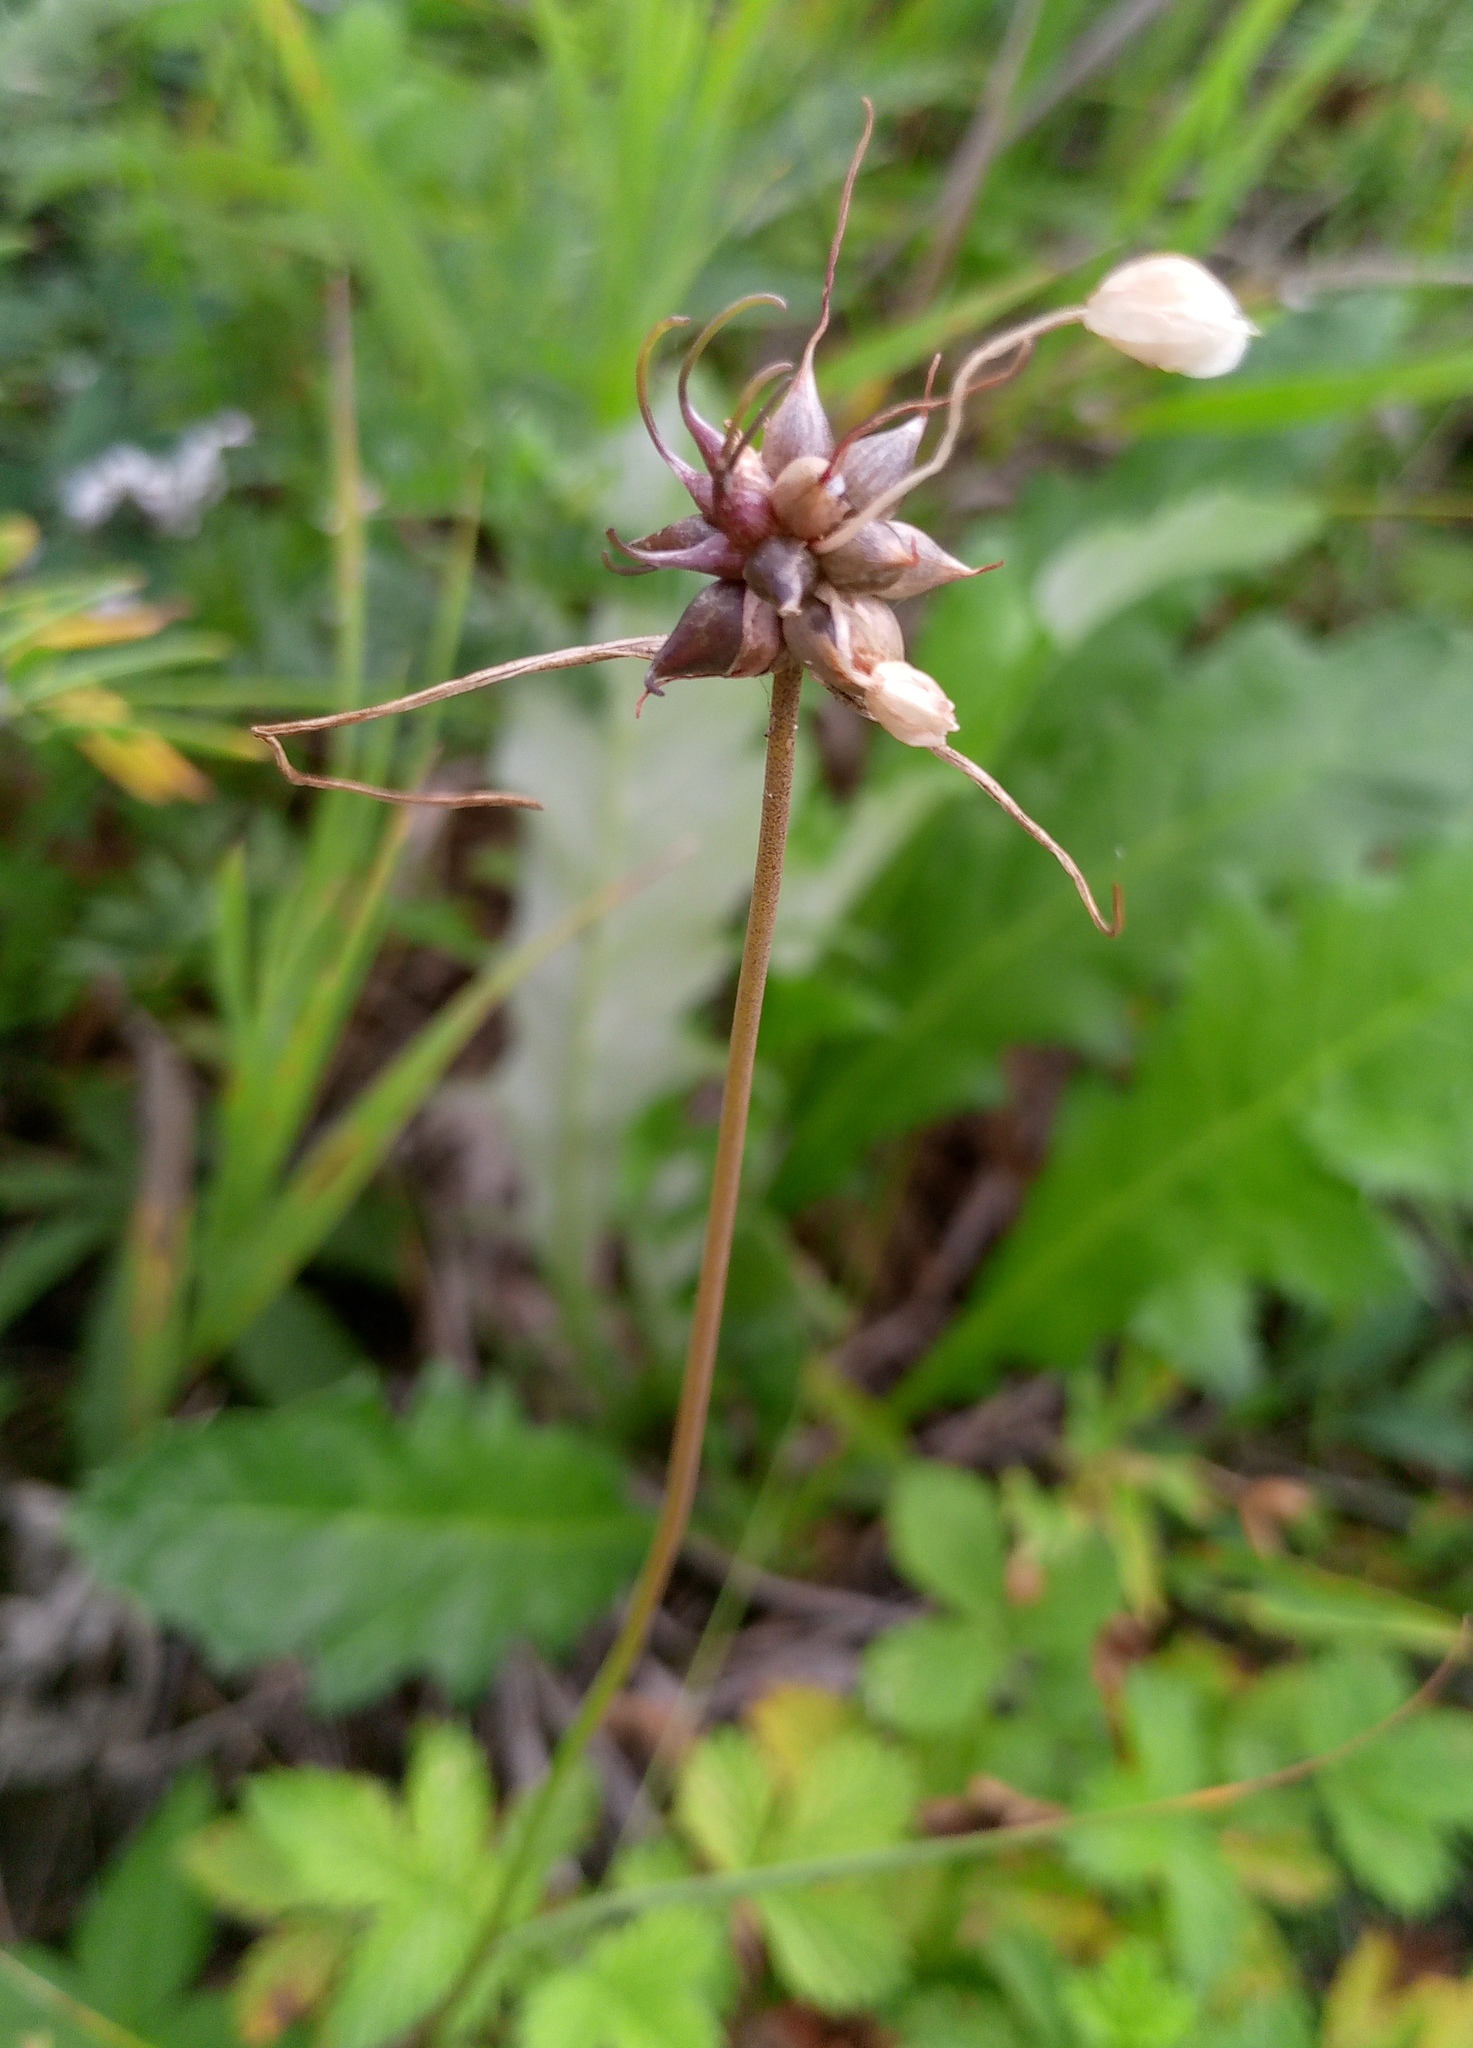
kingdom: Plantae
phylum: Tracheophyta
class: Liliopsida
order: Asparagales
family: Amaryllidaceae
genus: Allium
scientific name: Allium oleraceum
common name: Field garlic
